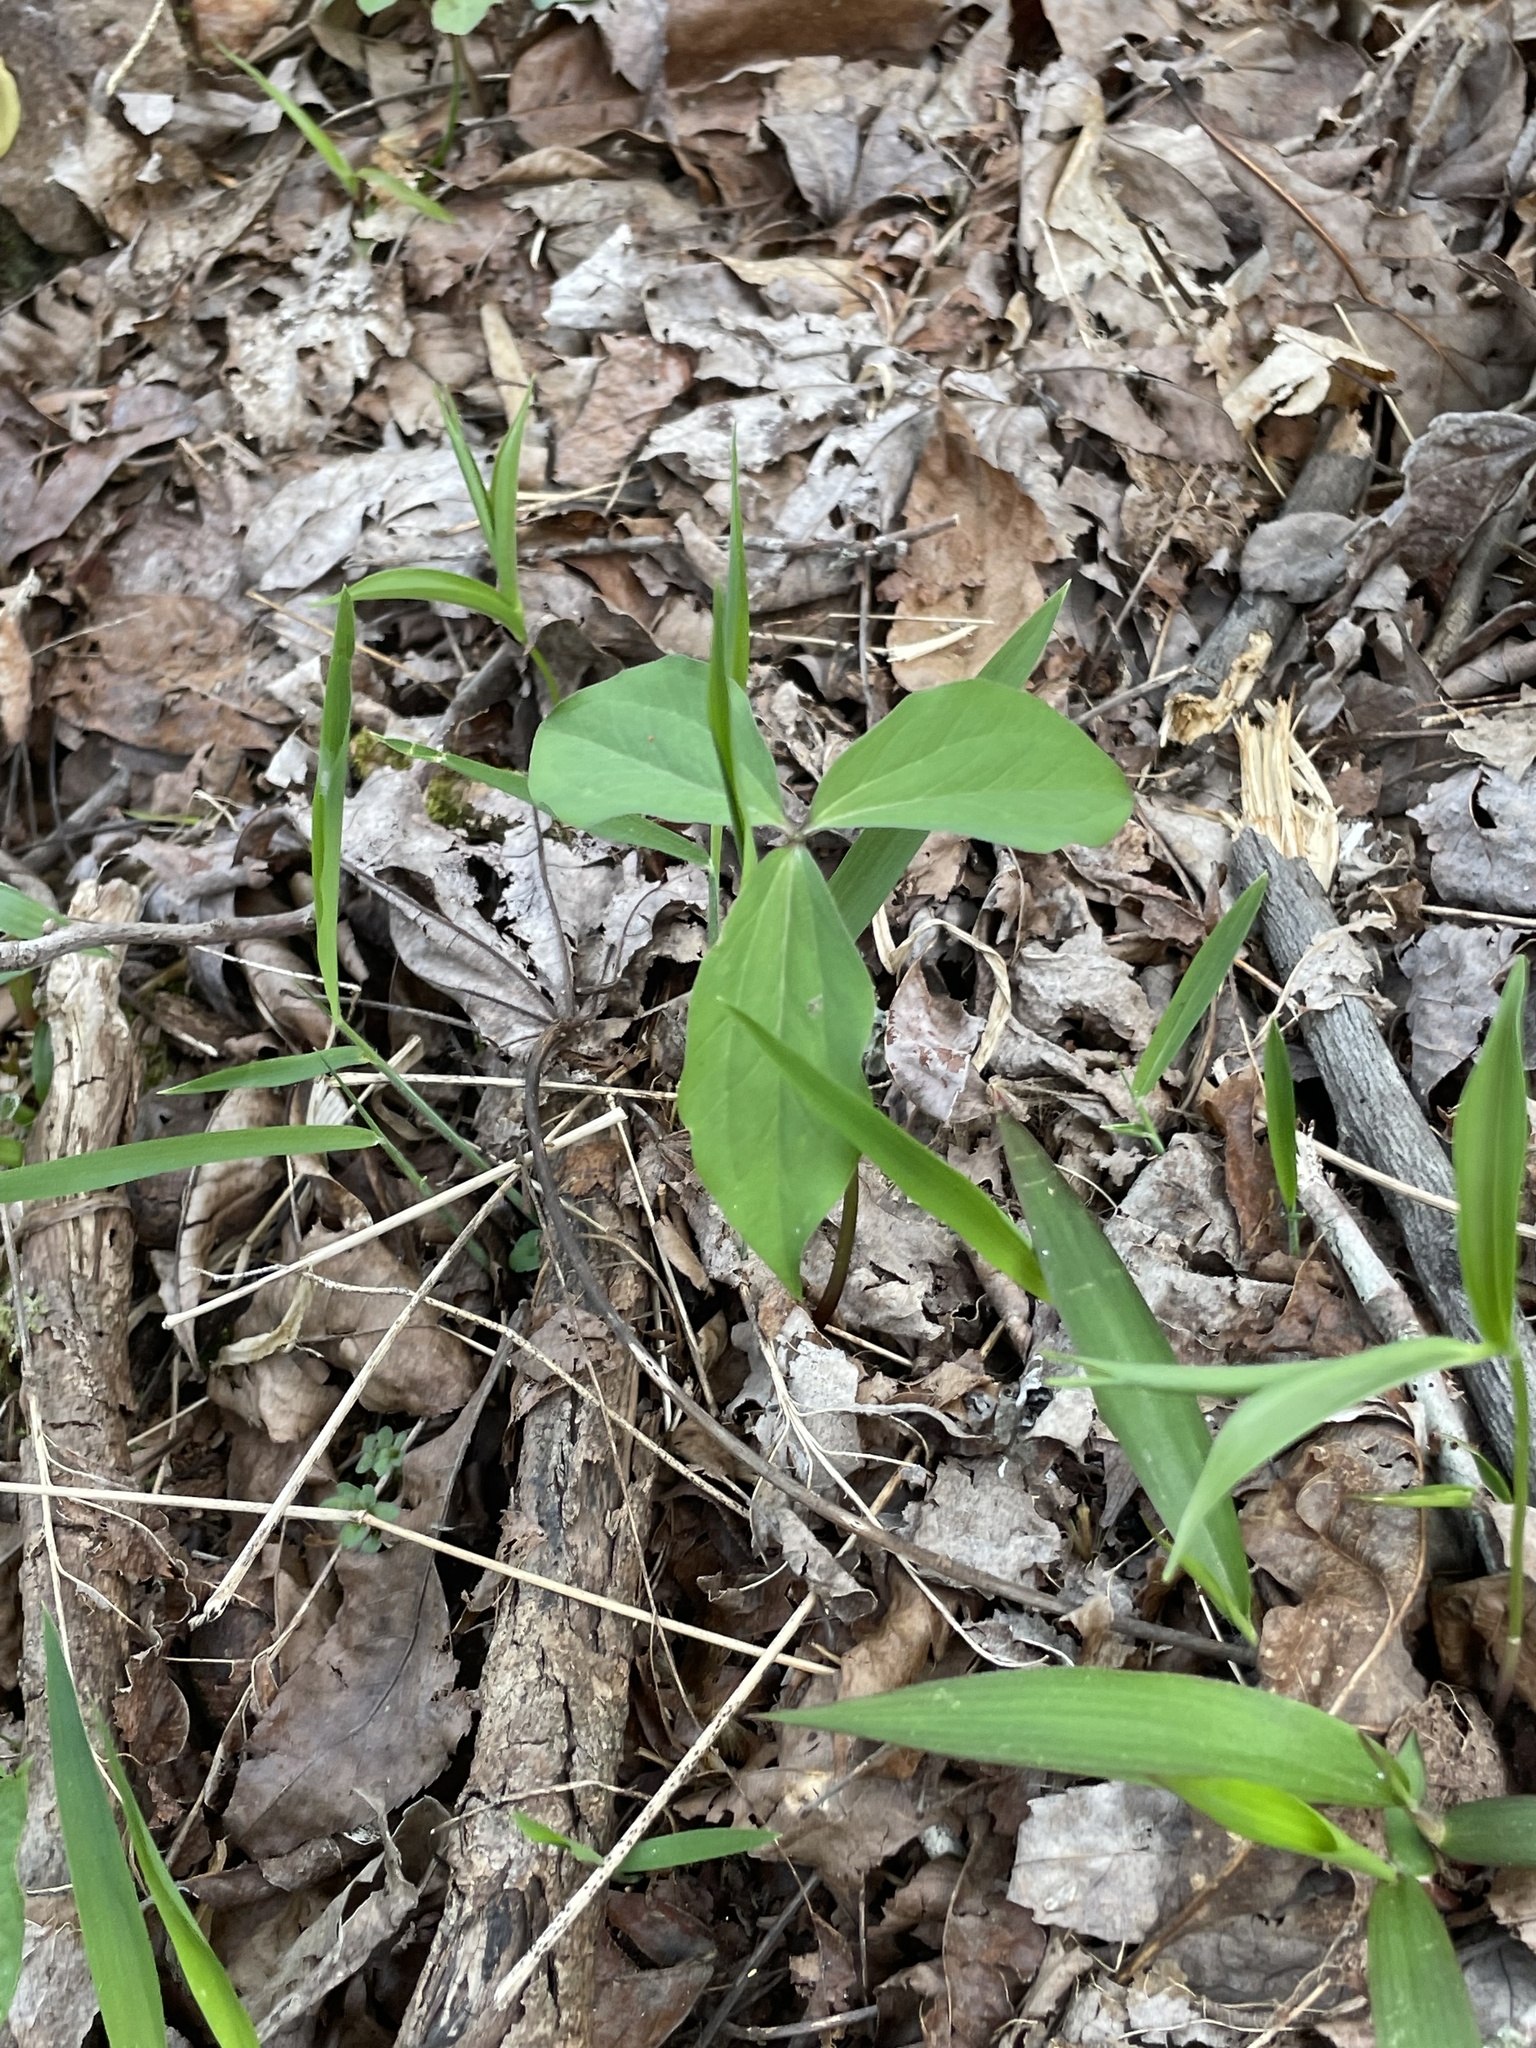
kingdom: Plantae
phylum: Tracheophyta
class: Liliopsida
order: Liliales
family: Melanthiaceae
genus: Trillium
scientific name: Trillium catesbaei
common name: Bashful trillium
